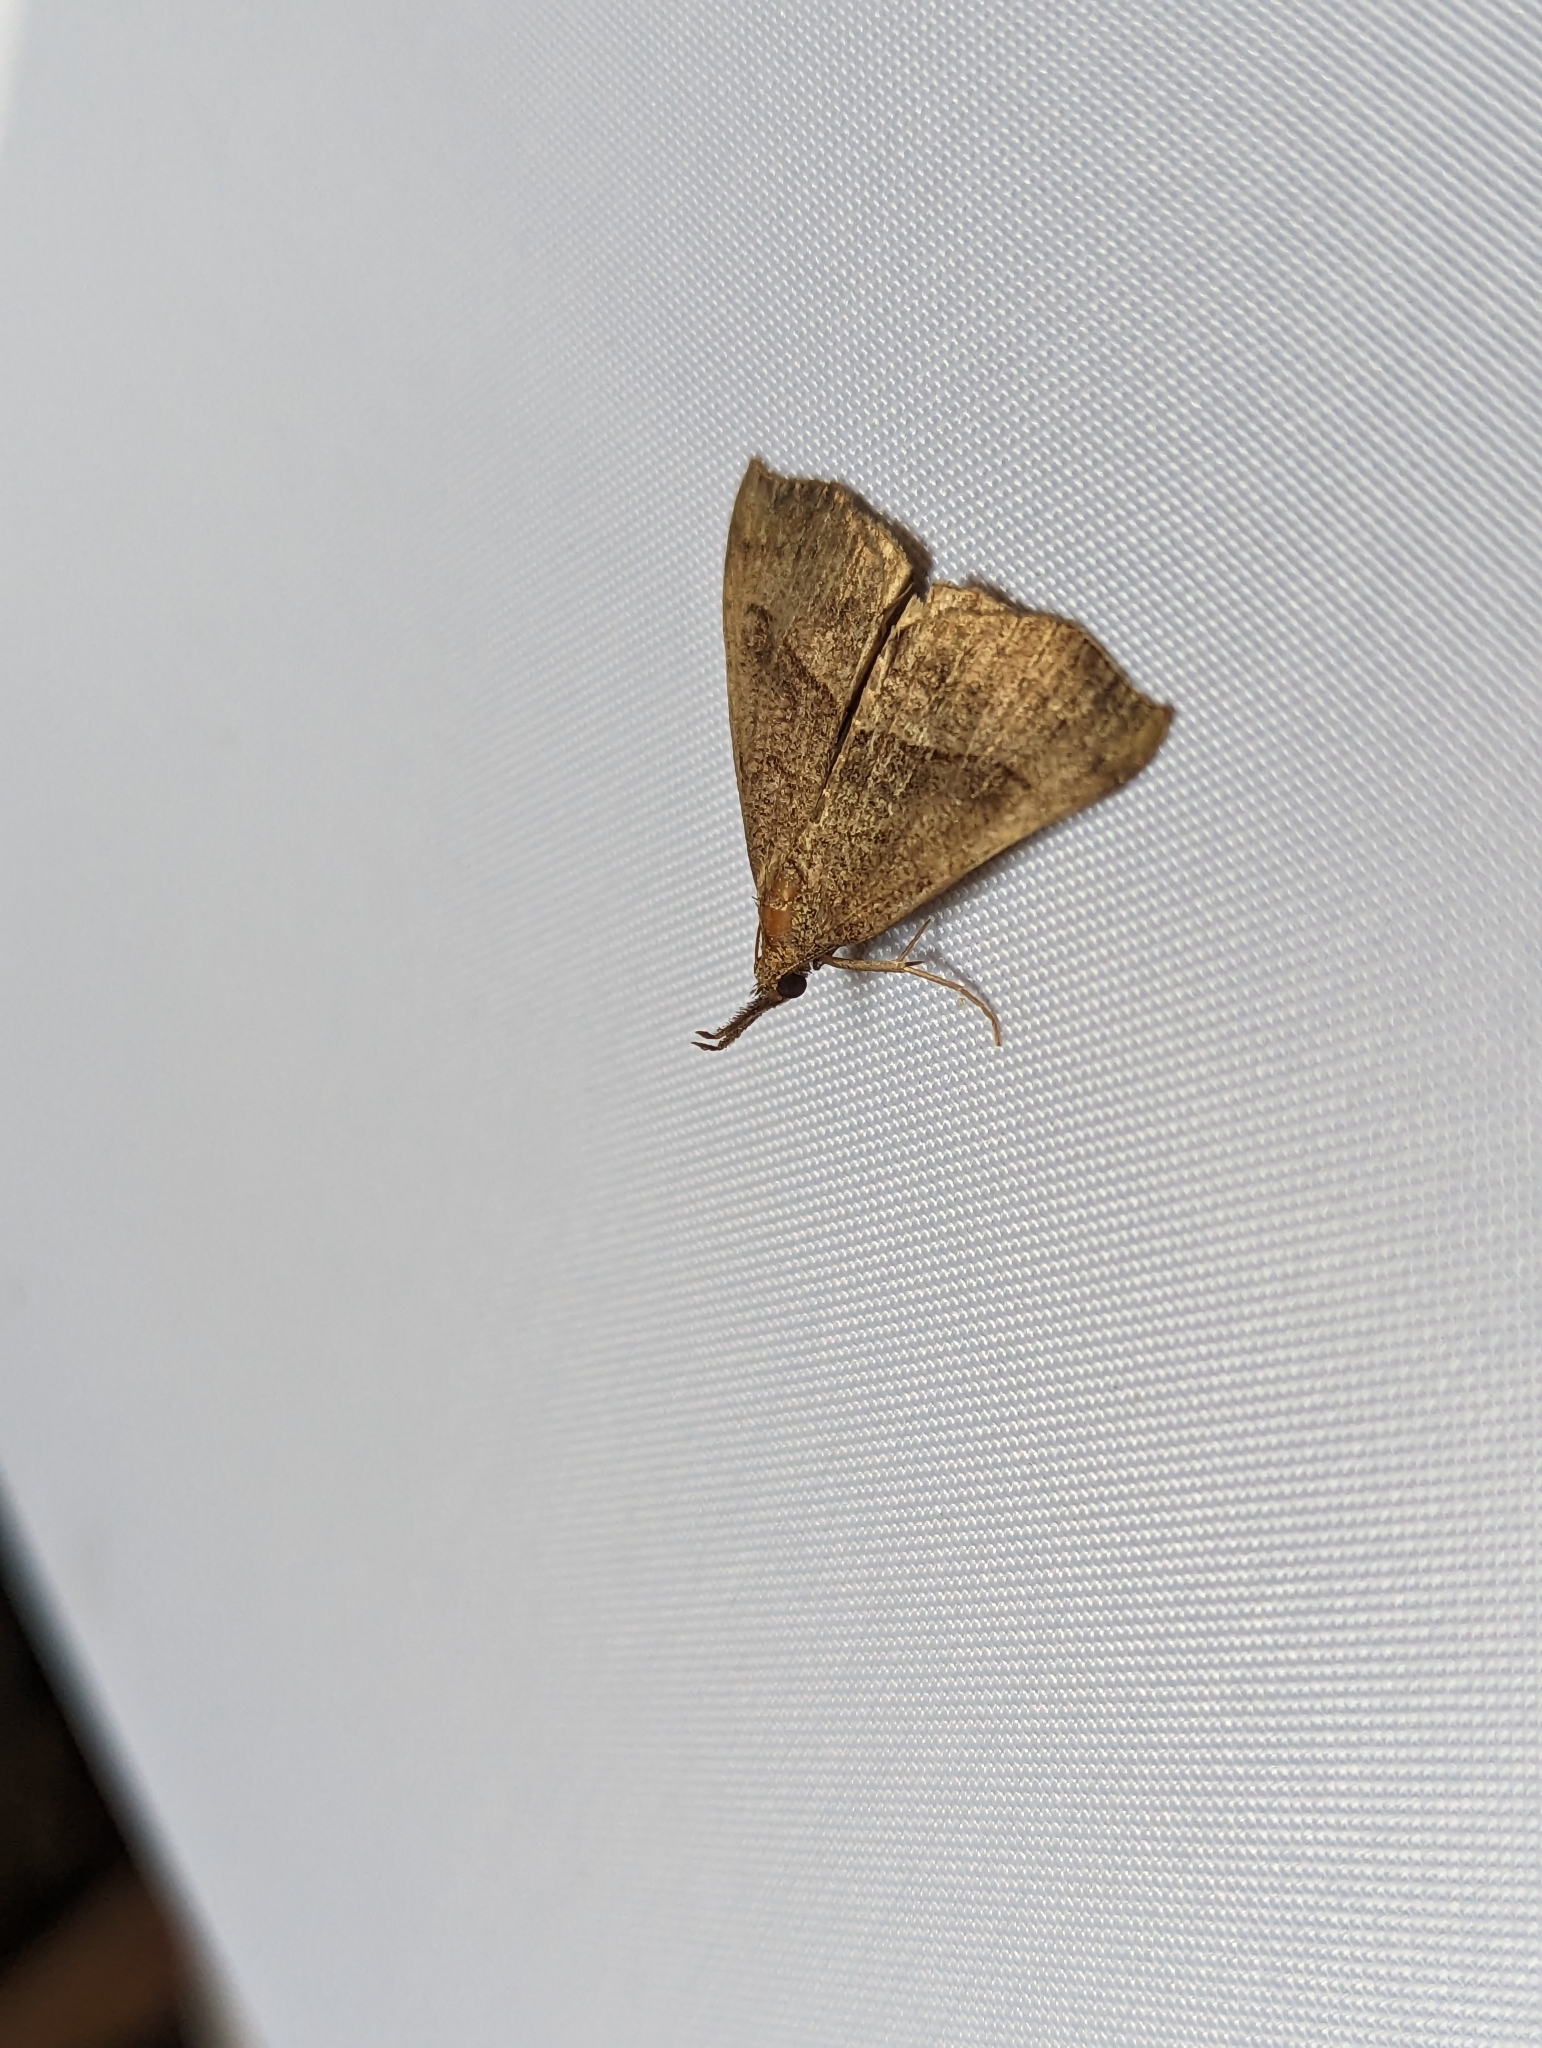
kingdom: Animalia
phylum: Arthropoda
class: Insecta
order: Lepidoptera
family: Erebidae
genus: Hypena
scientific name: Hypena proboscidalis
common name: Snout
